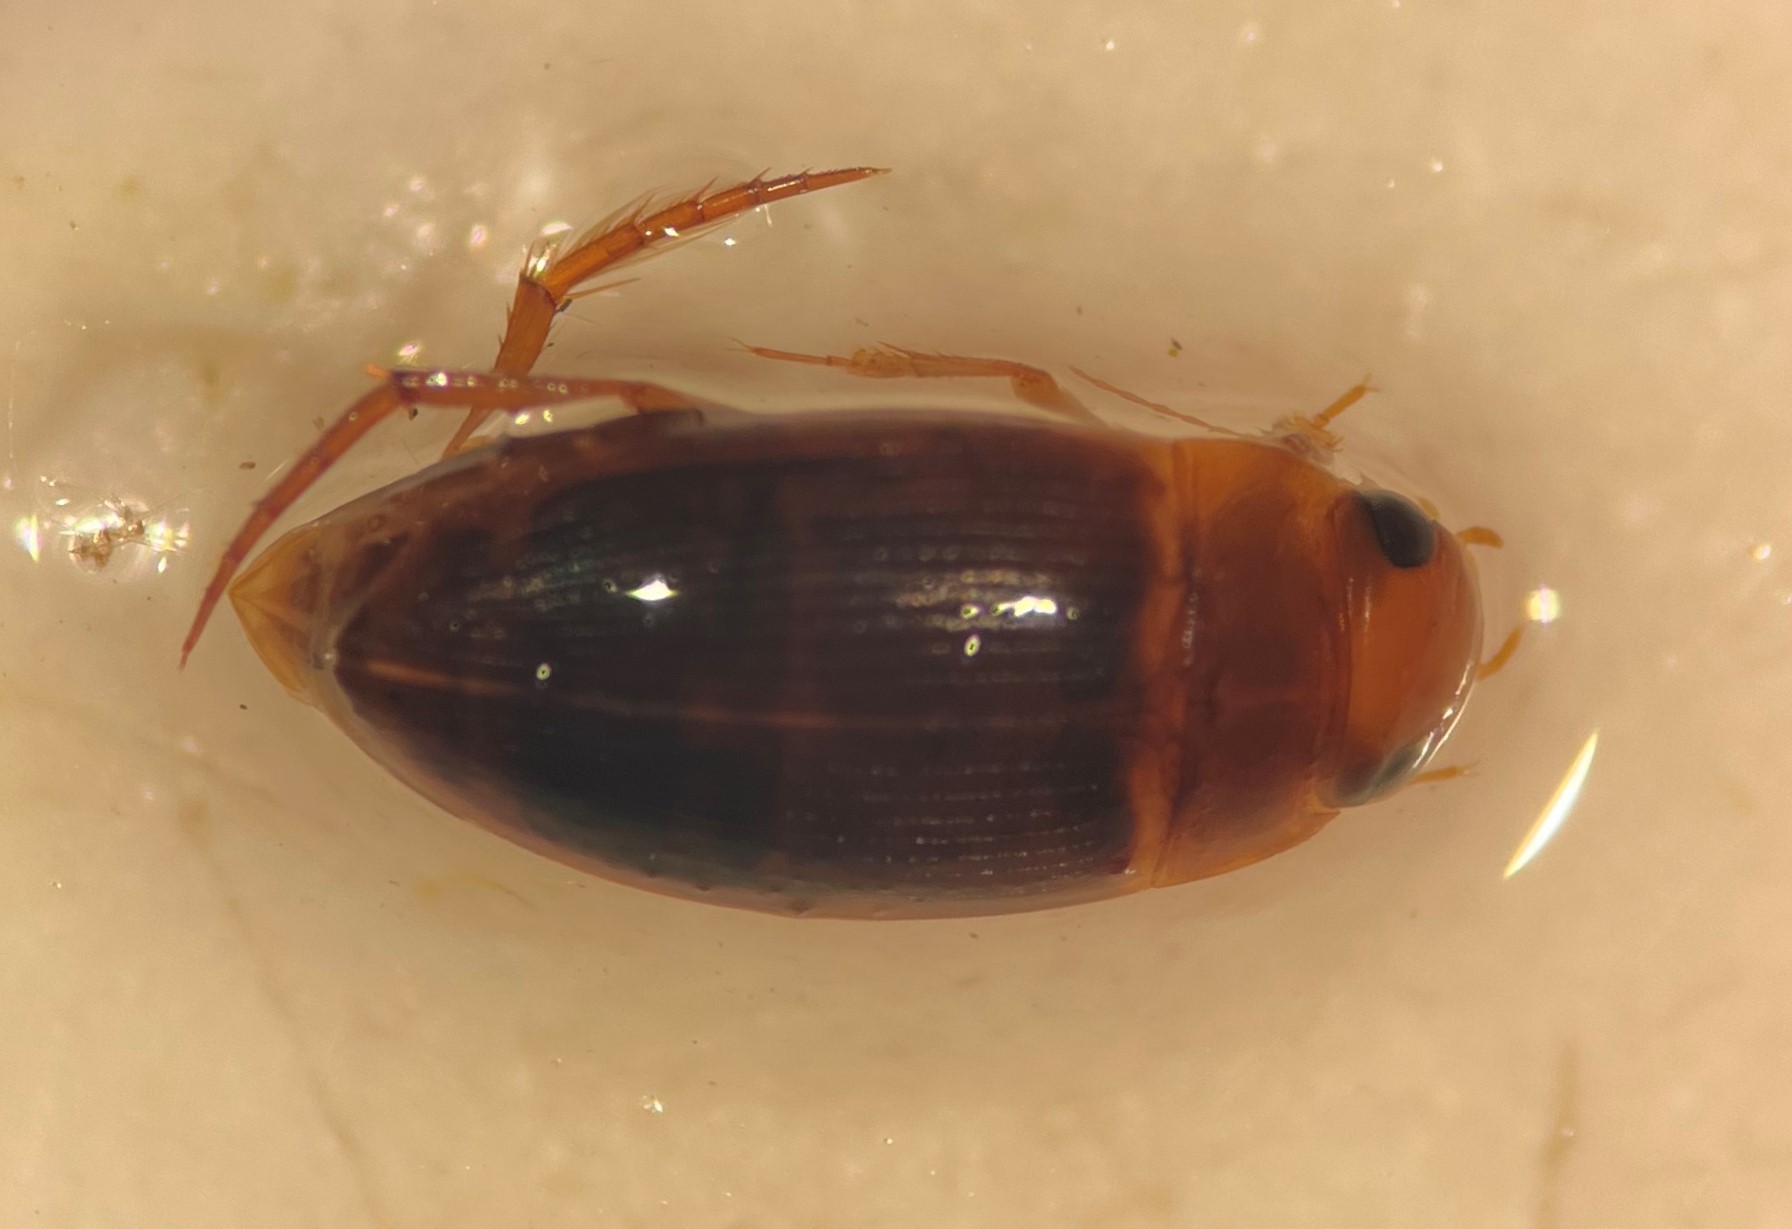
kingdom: Animalia
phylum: Arthropoda
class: Insecta
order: Coleoptera
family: Dytiscidae
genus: Copelatus
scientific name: Copelatus caelatipennis
